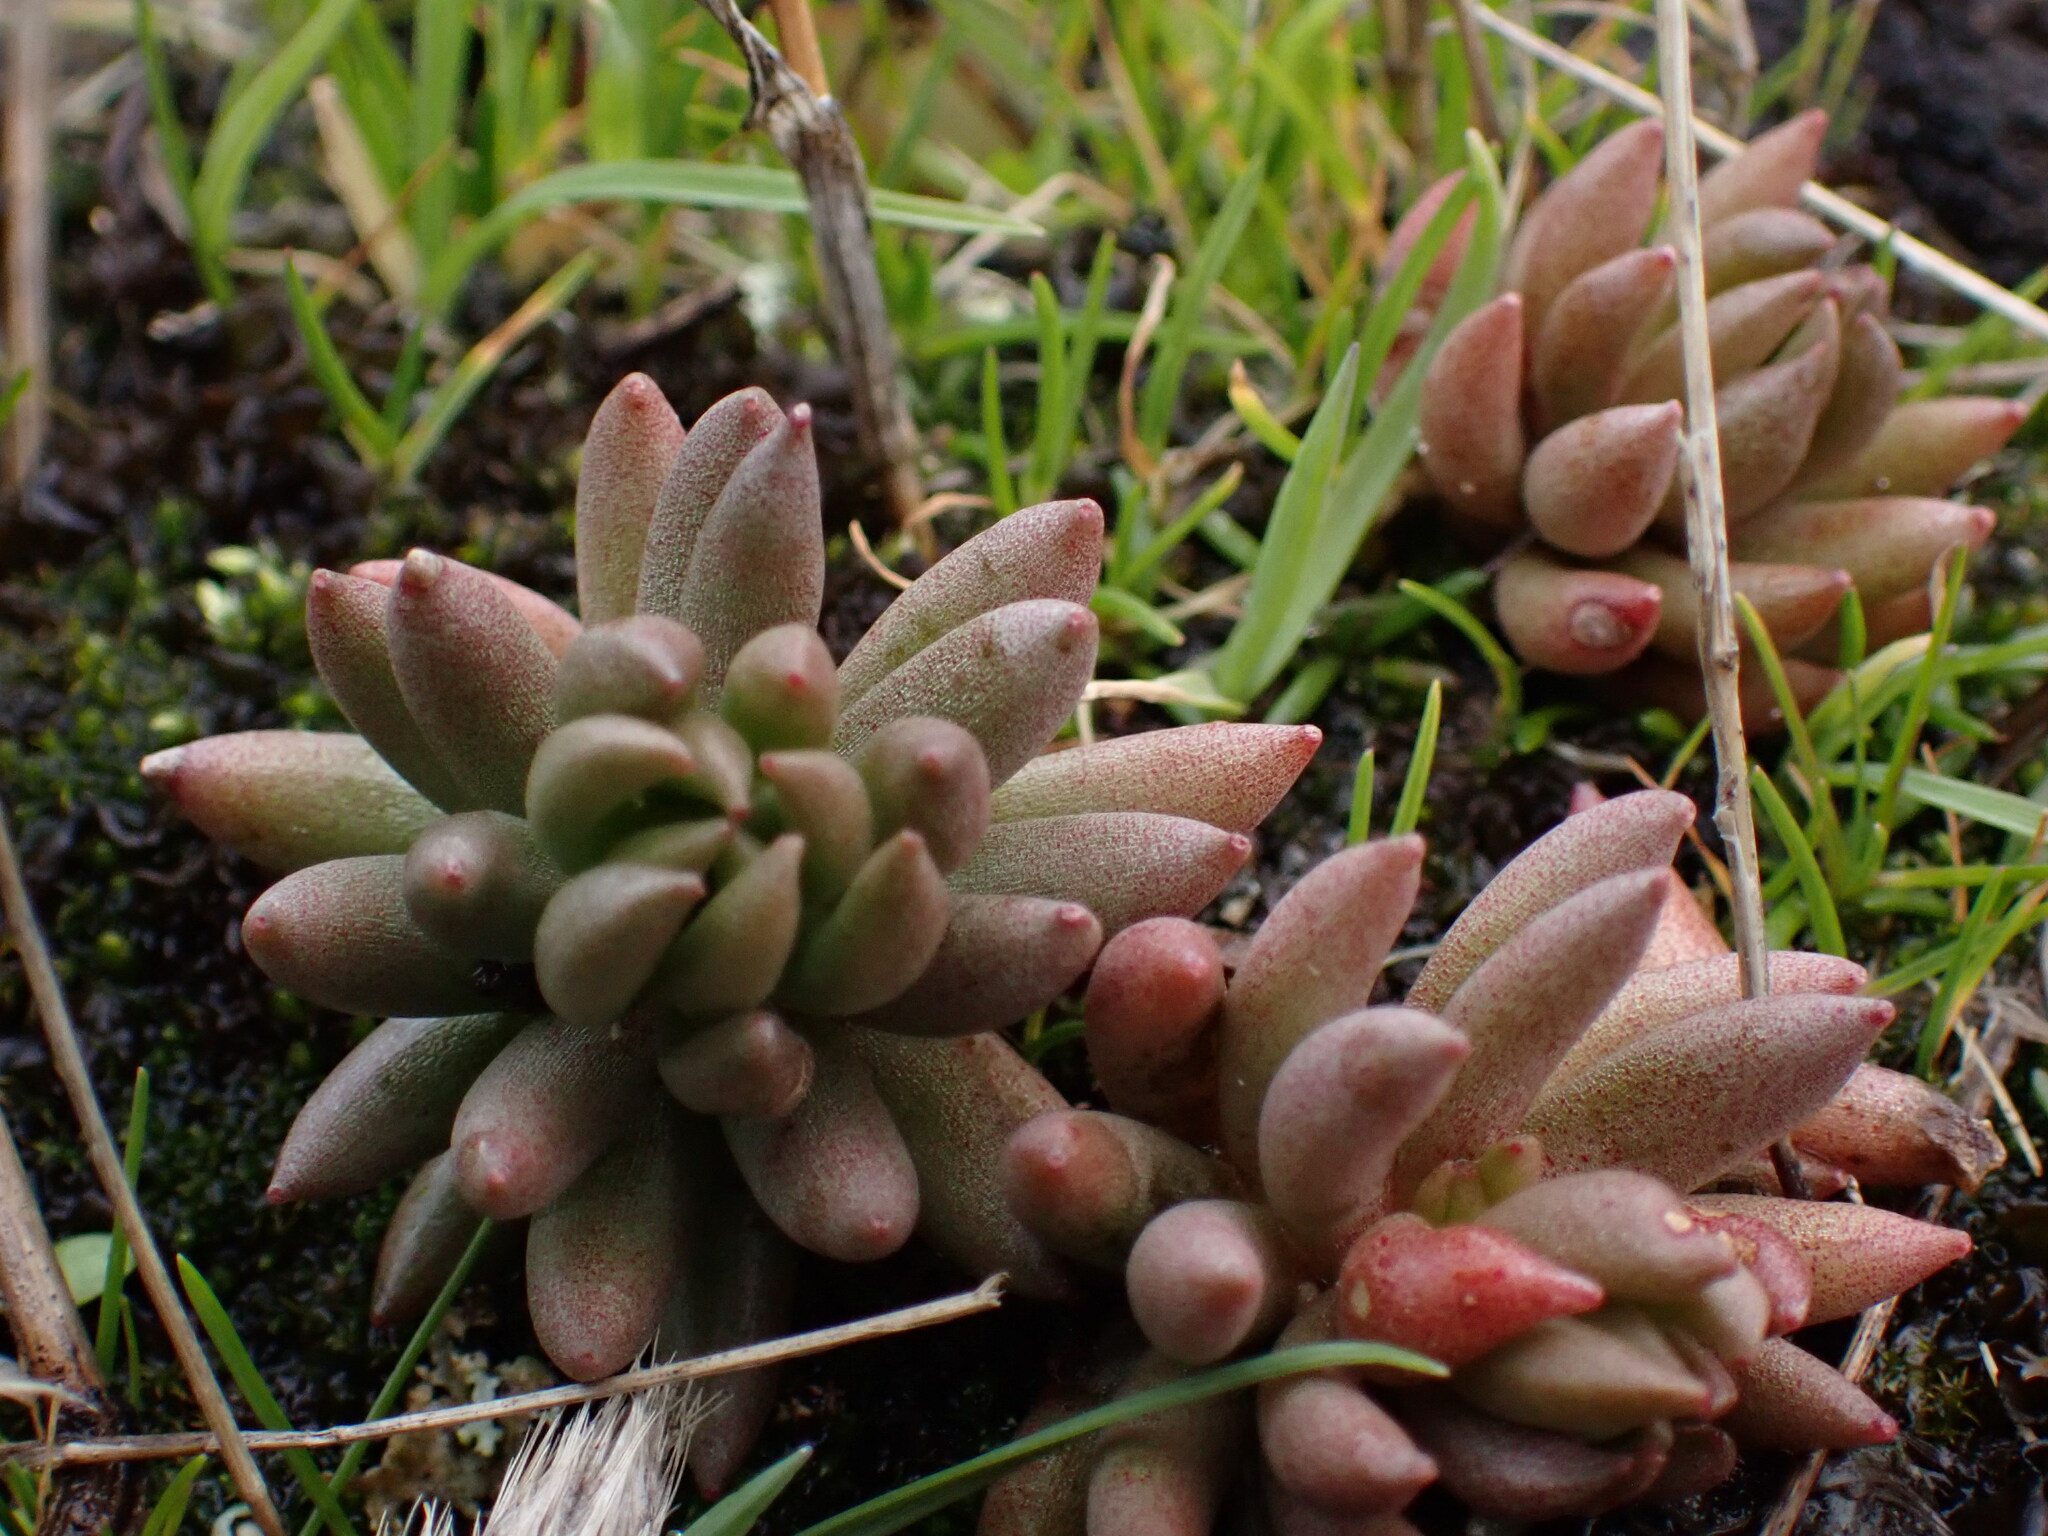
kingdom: Plantae
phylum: Tracheophyta
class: Magnoliopsida
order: Saxifragales
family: Crassulaceae
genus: Sedum
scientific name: Sedum lanceolatum
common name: Common stonecrop
